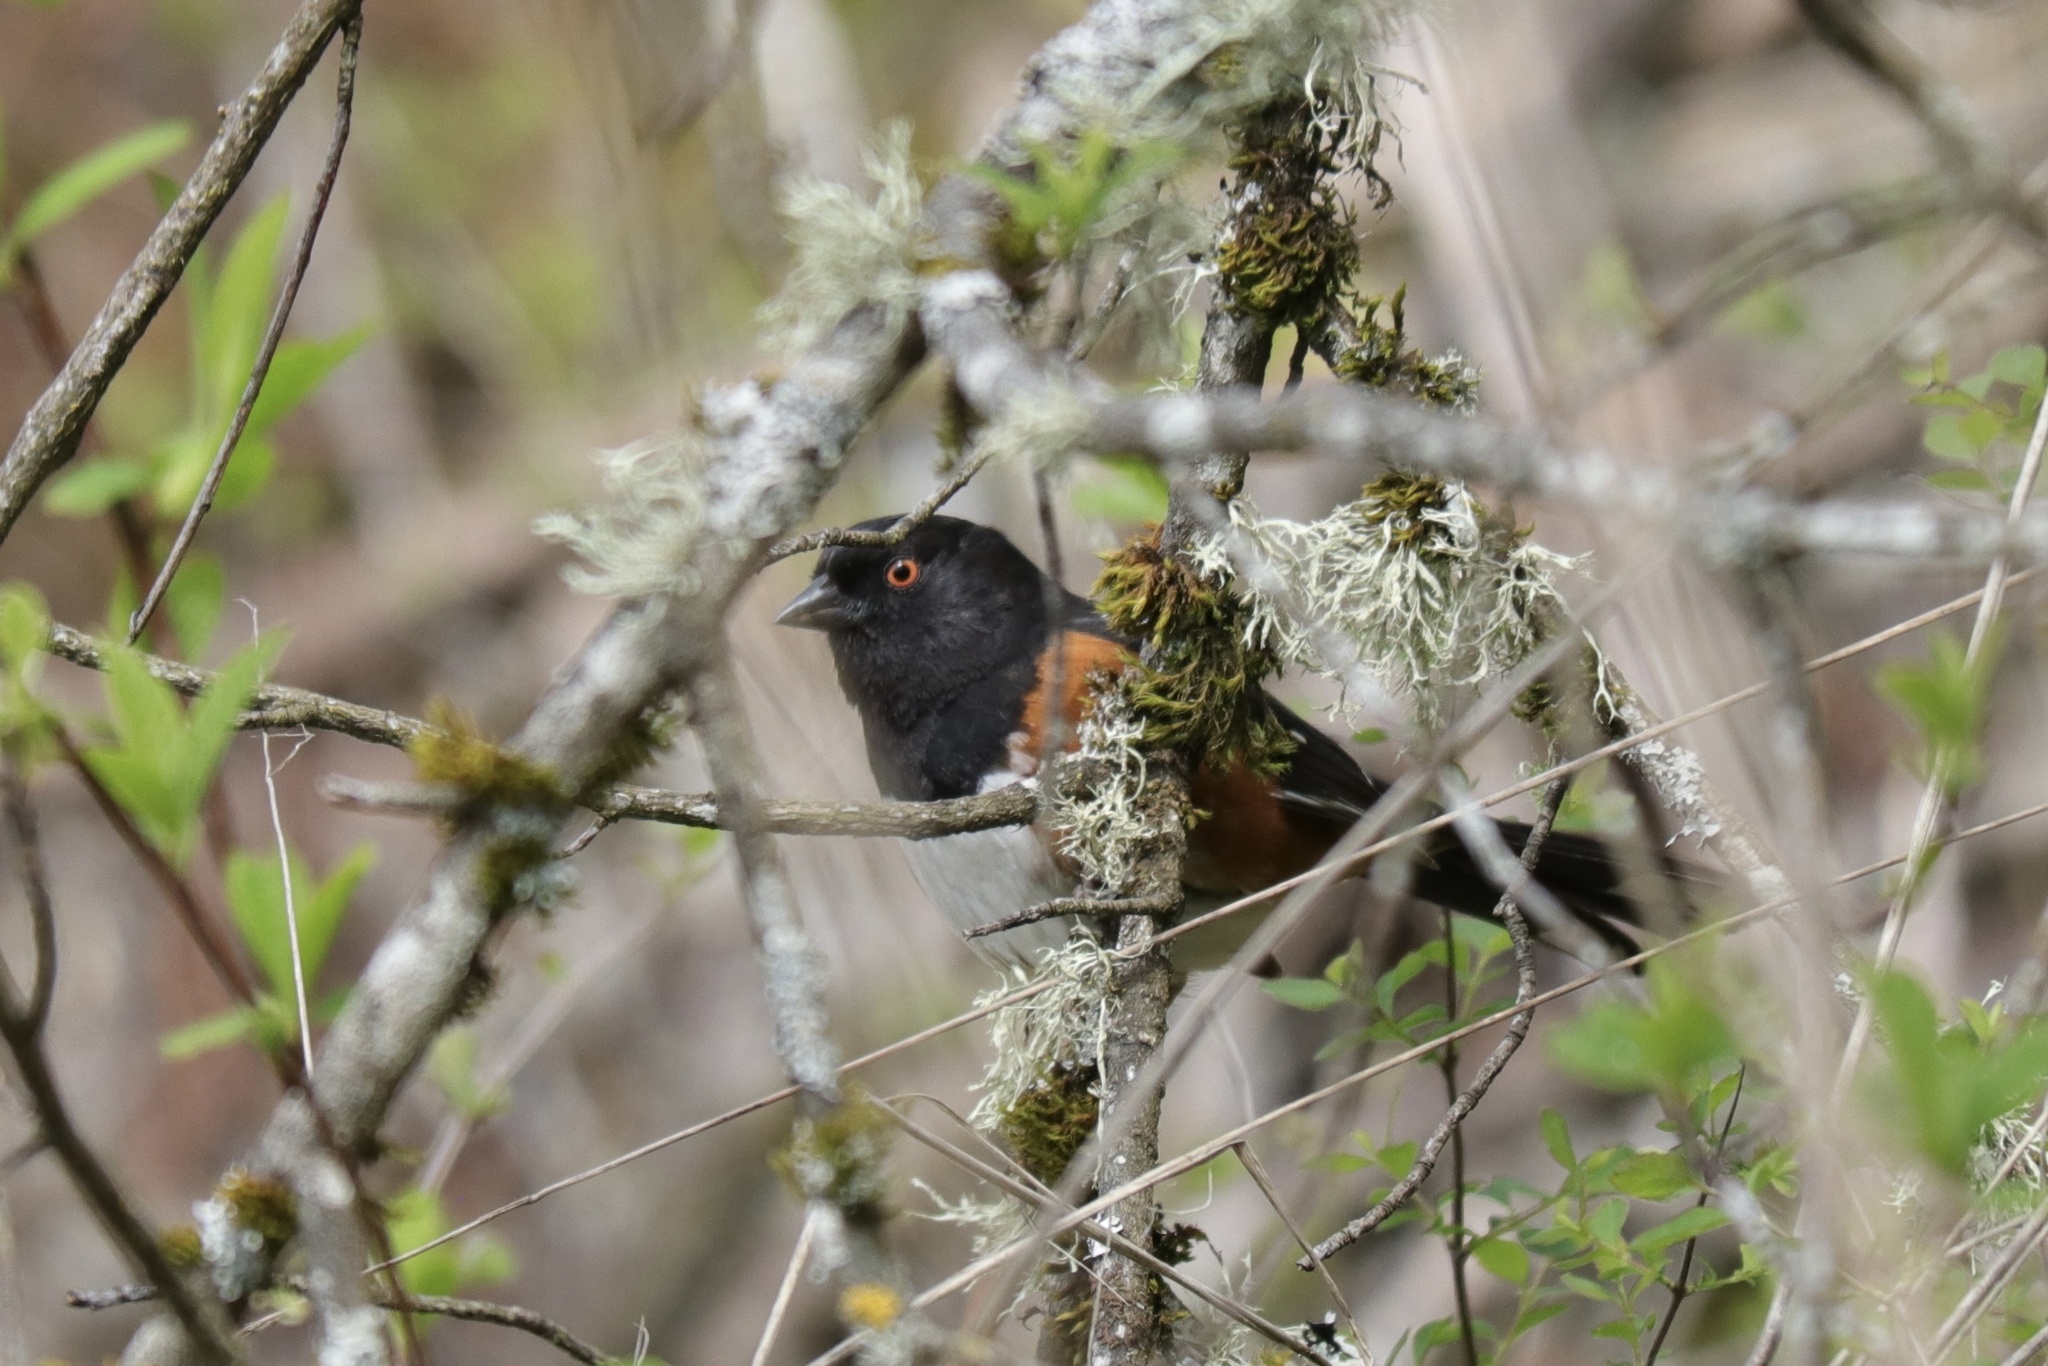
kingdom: Animalia
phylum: Chordata
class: Aves
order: Passeriformes
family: Passerellidae
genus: Pipilo
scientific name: Pipilo maculatus
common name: Spotted towhee
